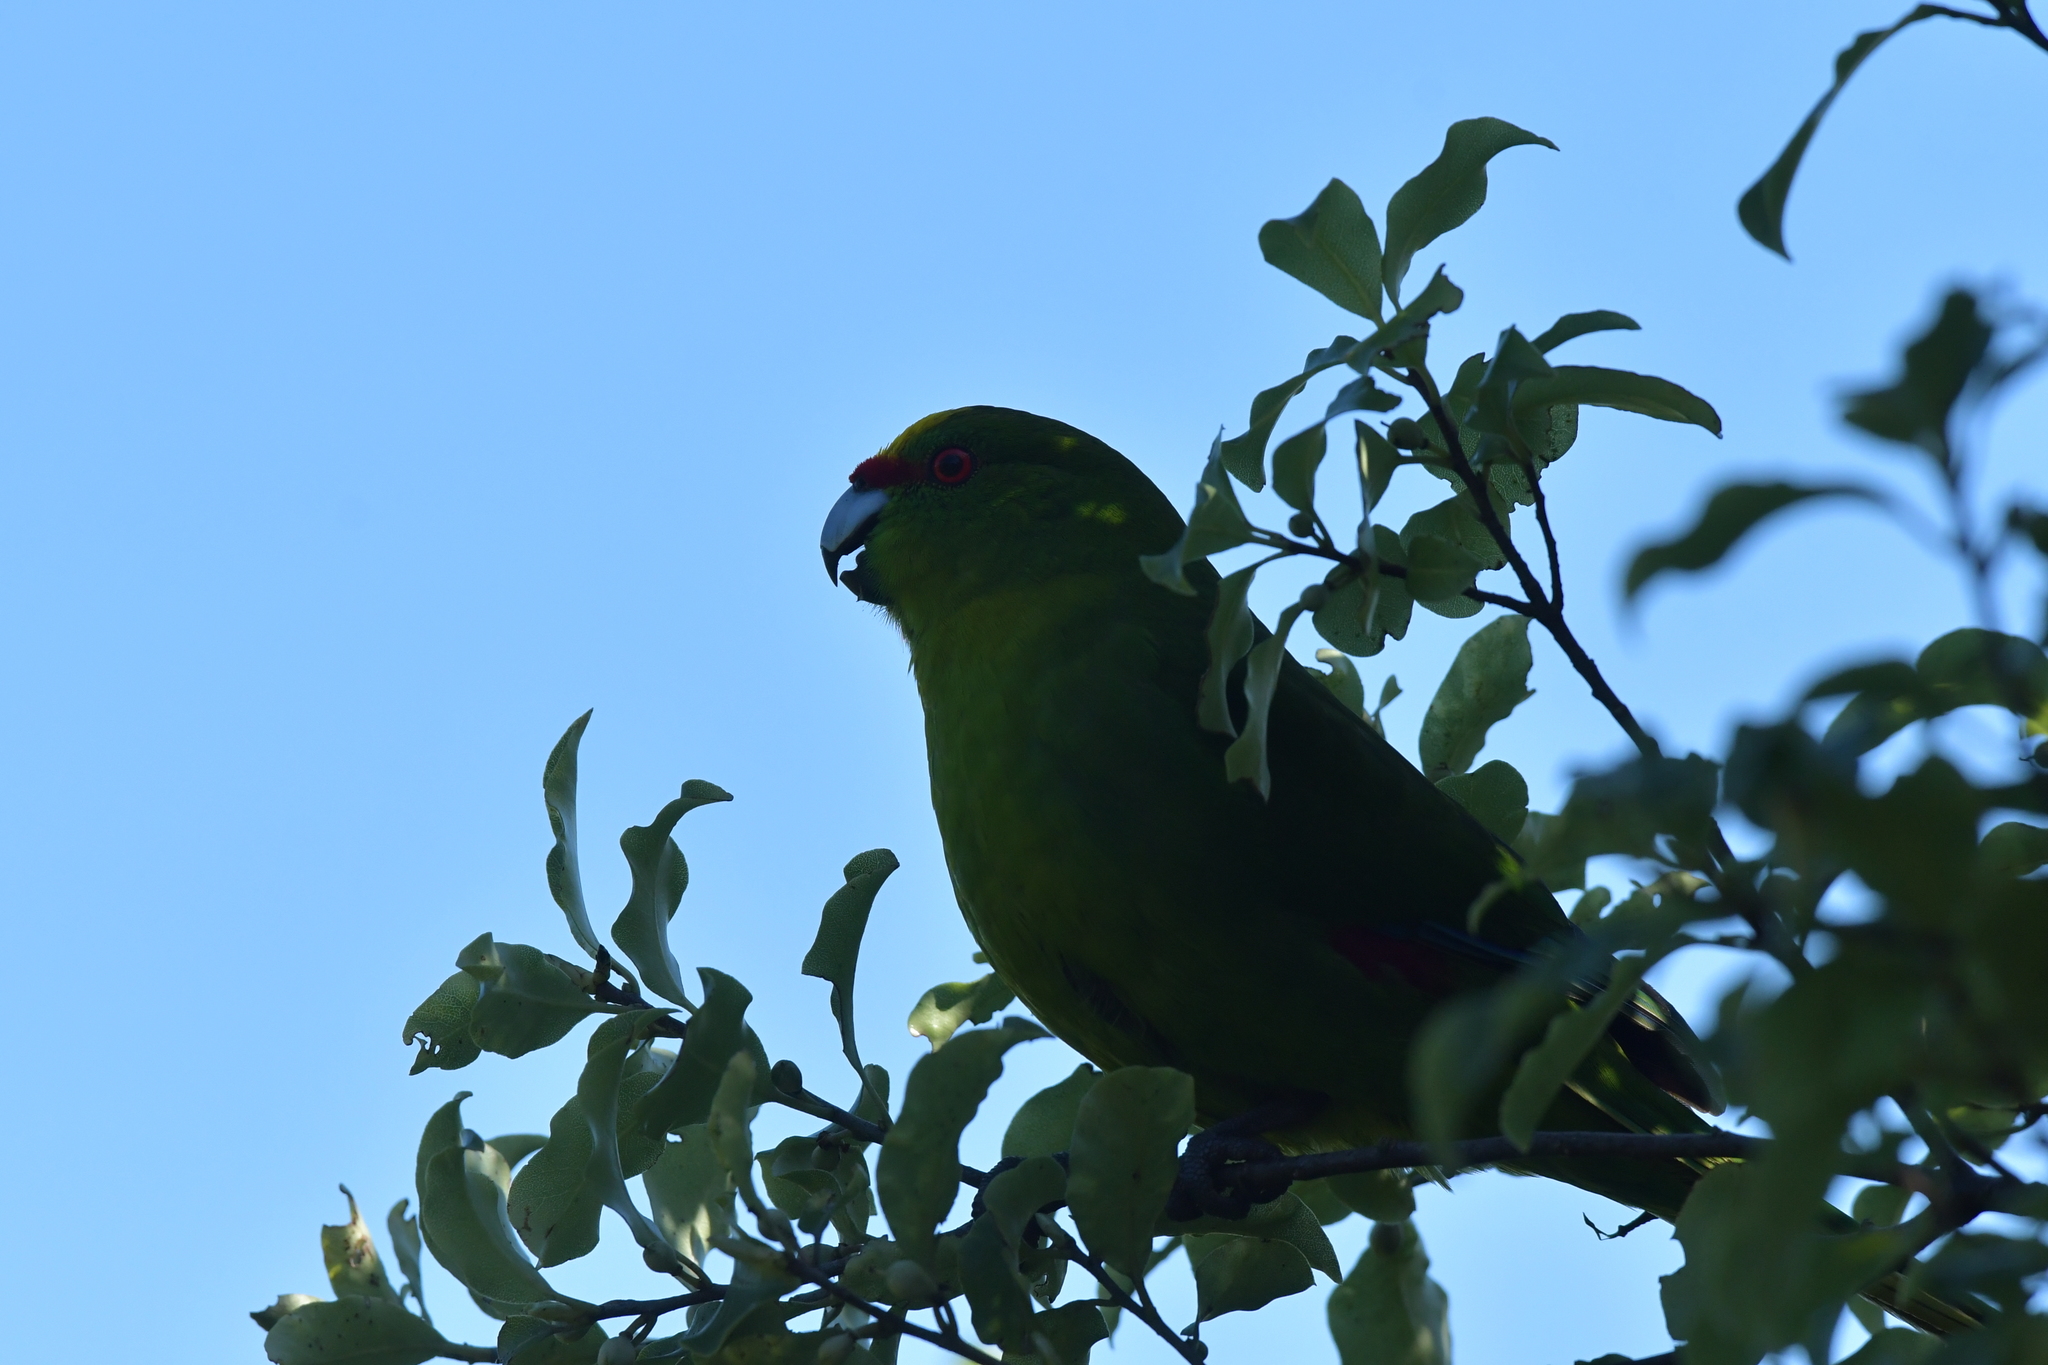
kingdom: Animalia
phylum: Chordata
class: Aves
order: Psittaciformes
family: Psittacidae
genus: Cyanoramphus
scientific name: Cyanoramphus auriceps
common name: Yellow-crowned parakeet
